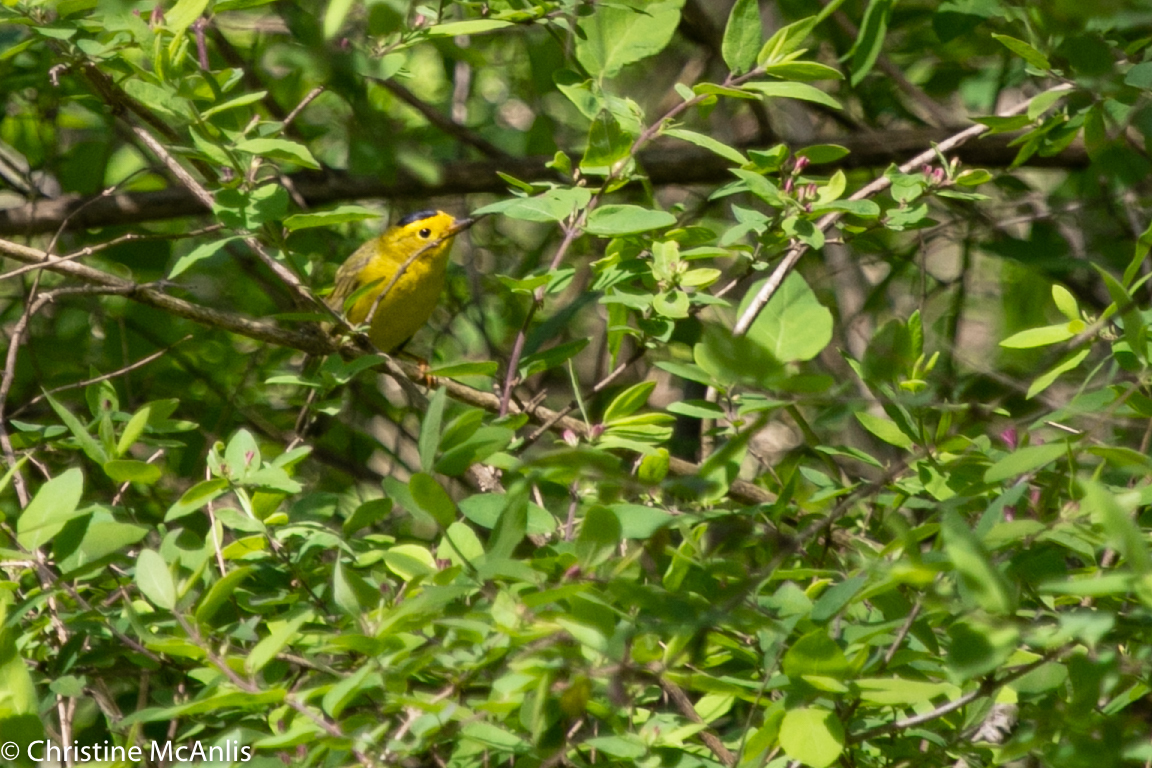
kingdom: Animalia
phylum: Chordata
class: Aves
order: Passeriformes
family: Parulidae
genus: Cardellina
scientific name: Cardellina pusilla
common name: Wilson's warbler
